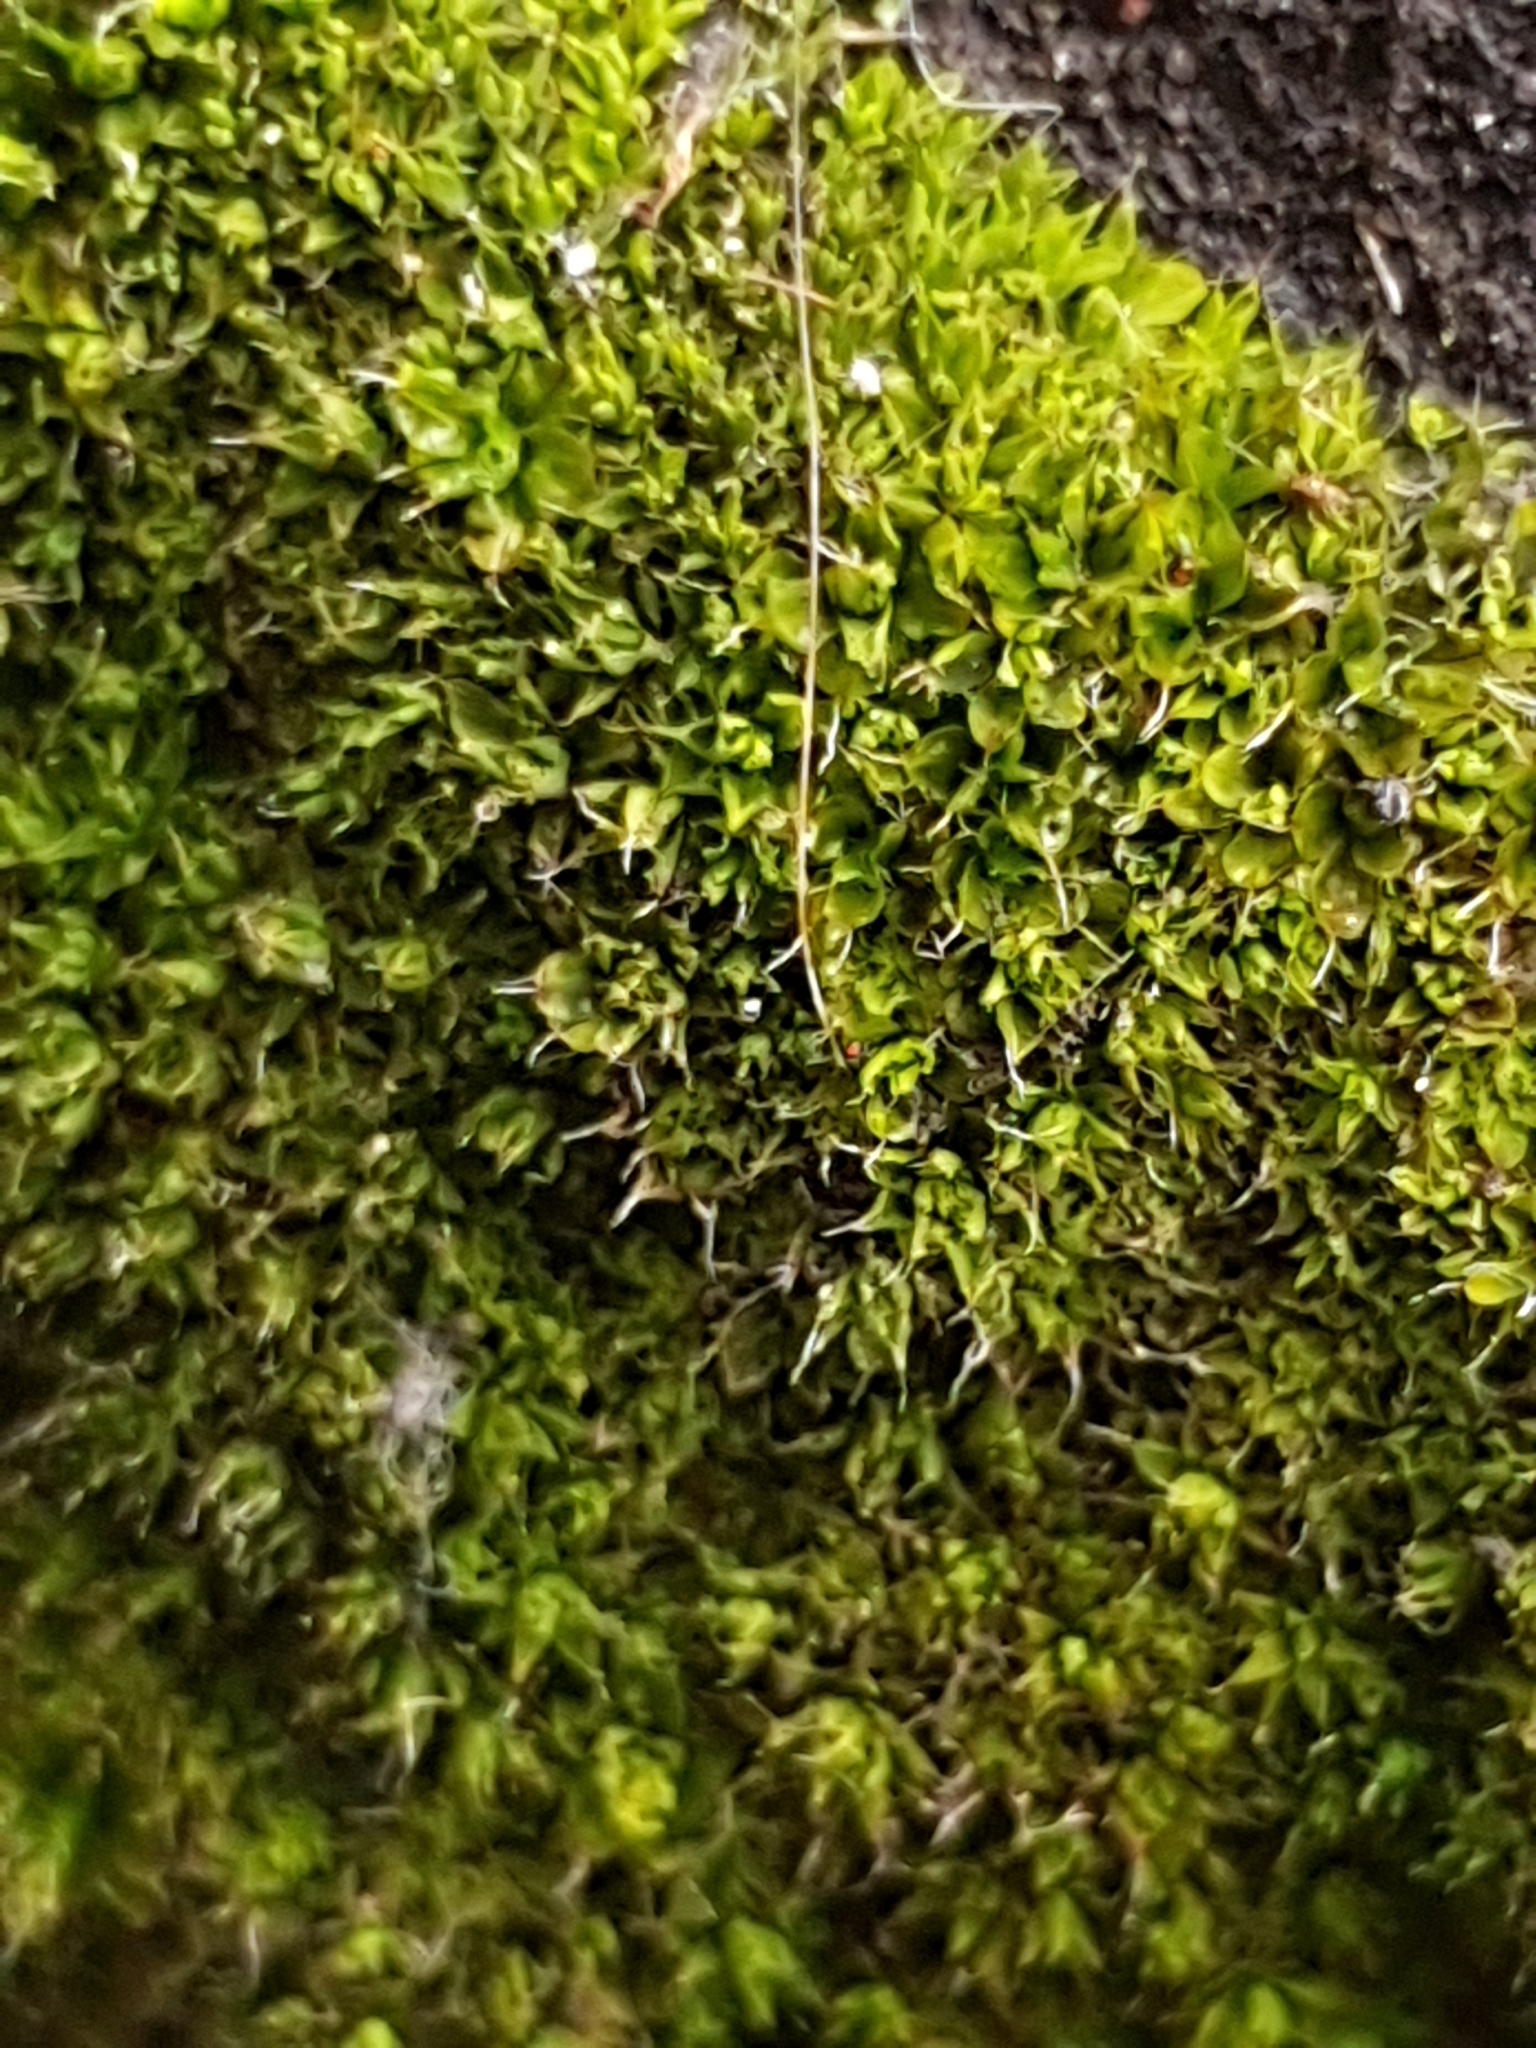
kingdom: Plantae
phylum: Bryophyta
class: Bryopsida
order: Pottiales
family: Pottiaceae
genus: Tortula
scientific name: Tortula muralis
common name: Wall screw-moss
